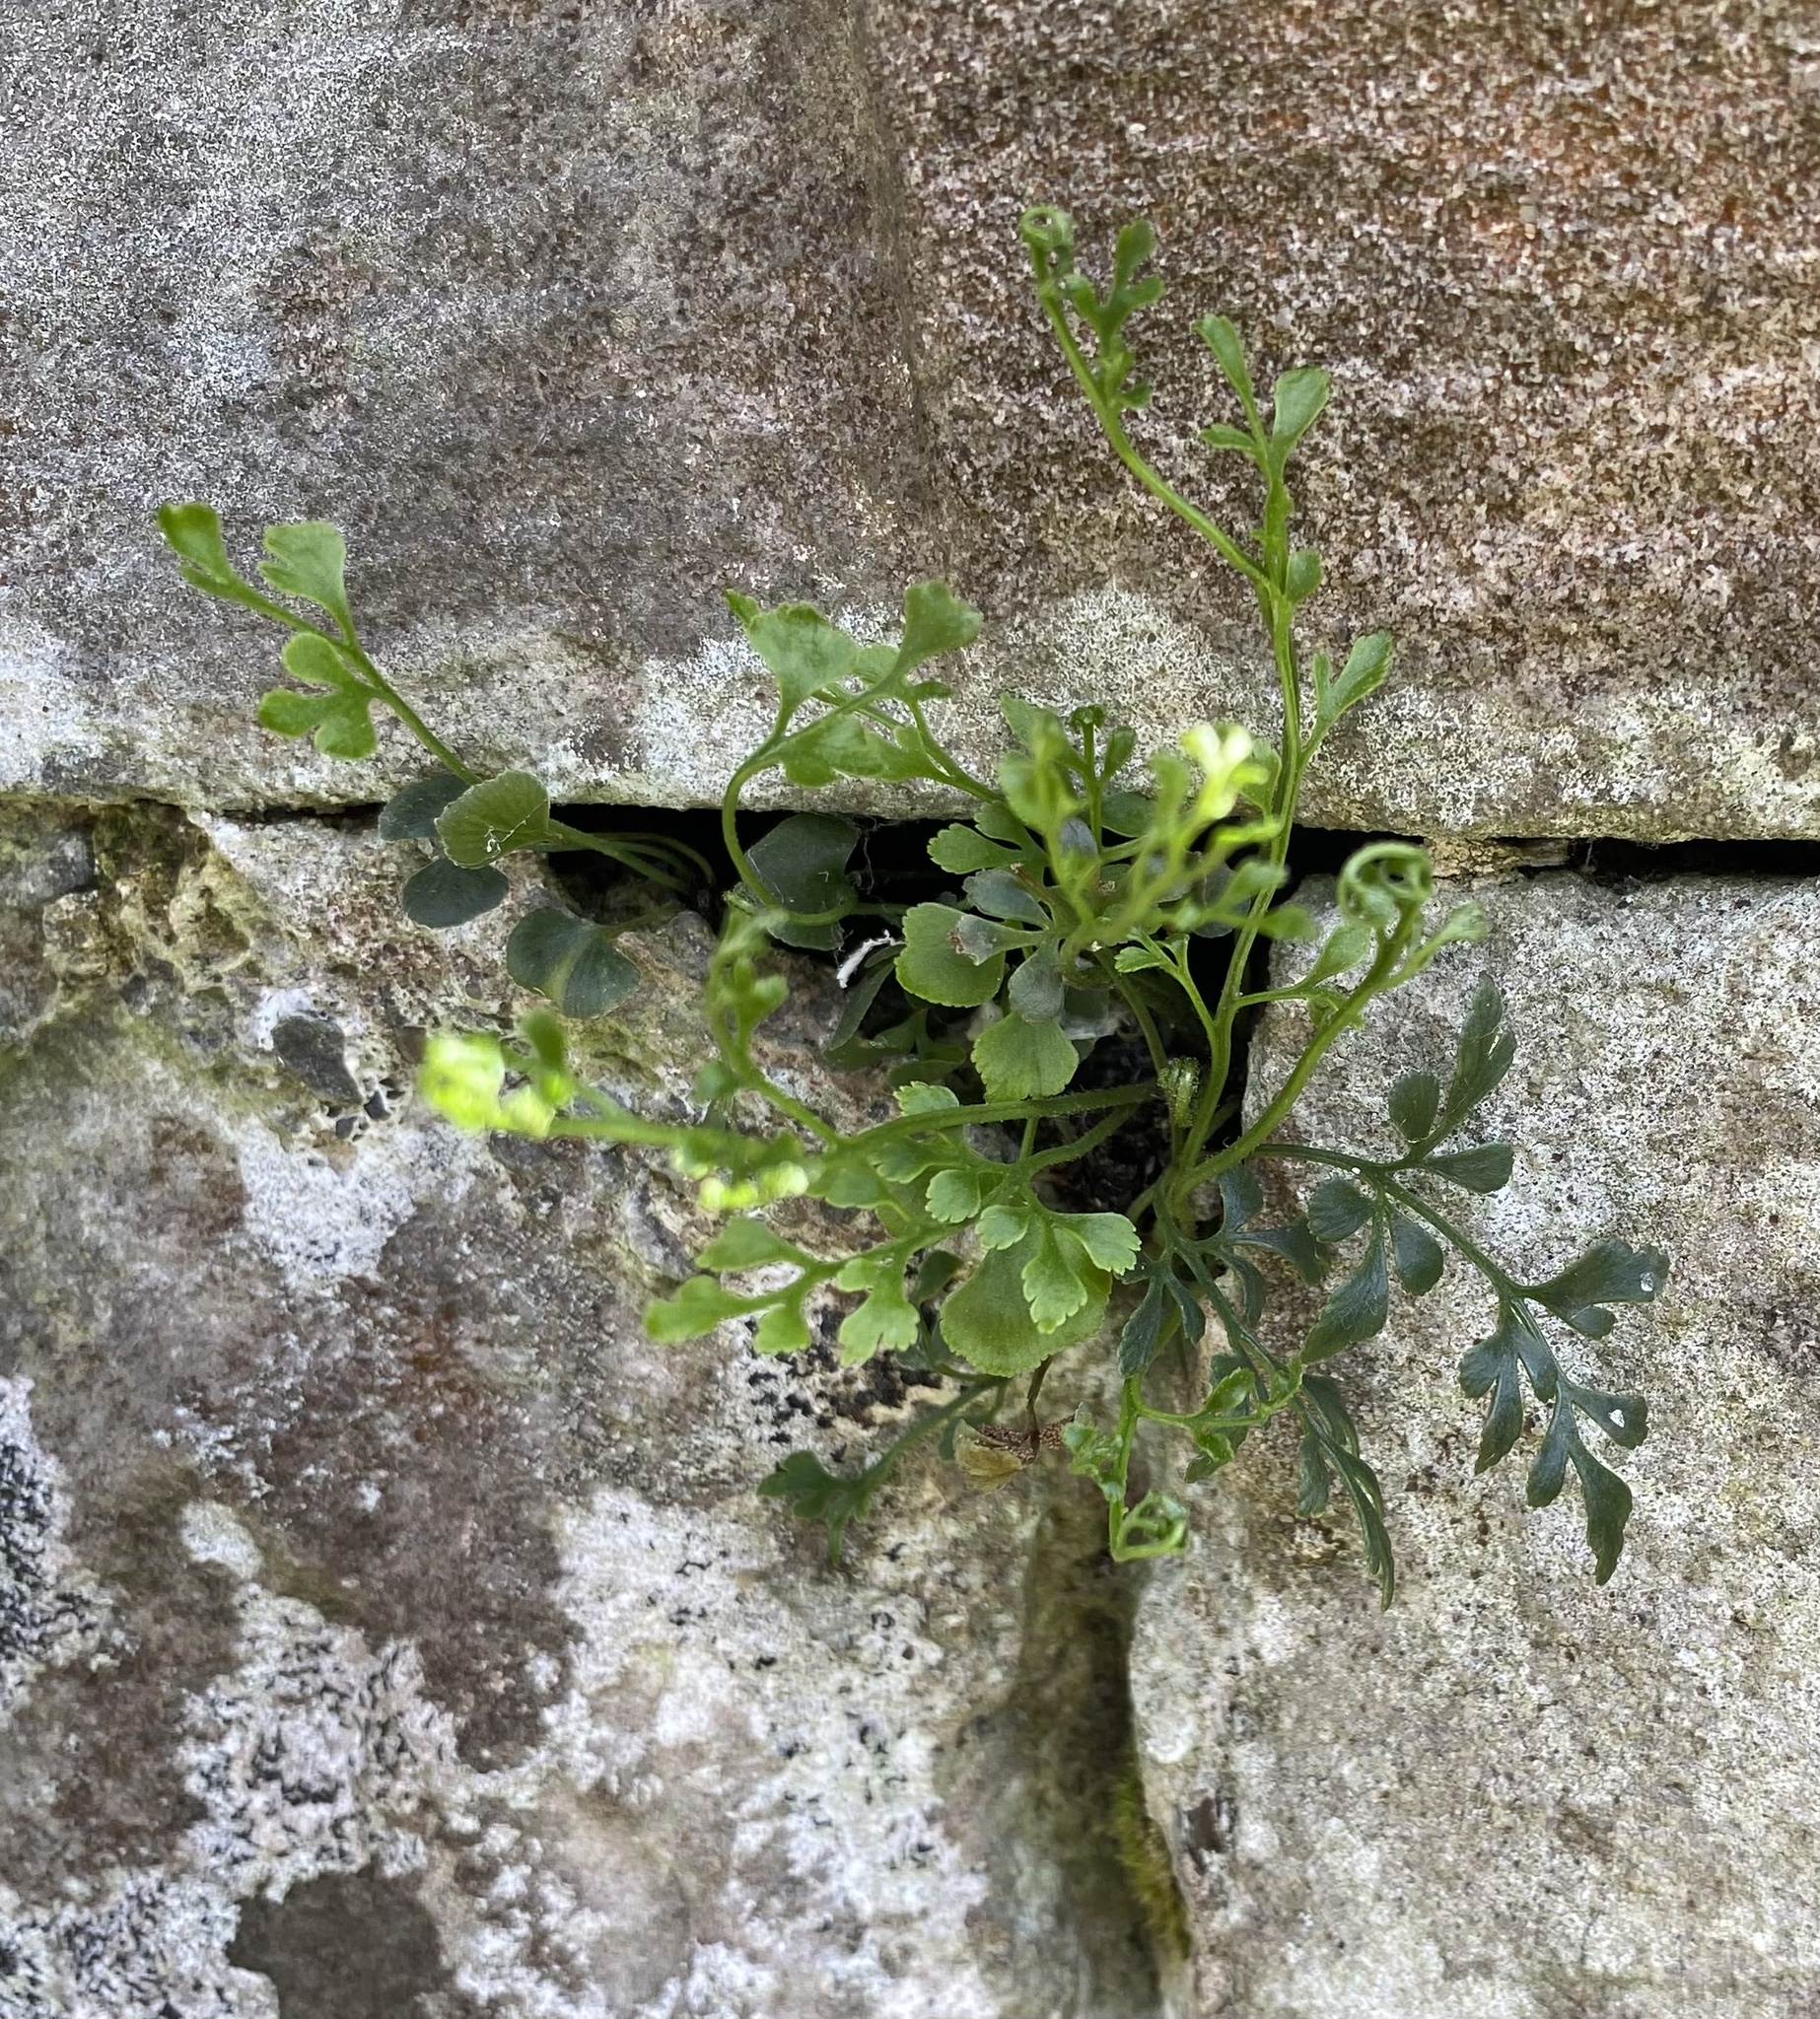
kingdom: Plantae
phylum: Tracheophyta
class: Polypodiopsida
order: Polypodiales
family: Aspleniaceae
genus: Asplenium
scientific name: Asplenium ruta-muraria
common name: Wall-rue
